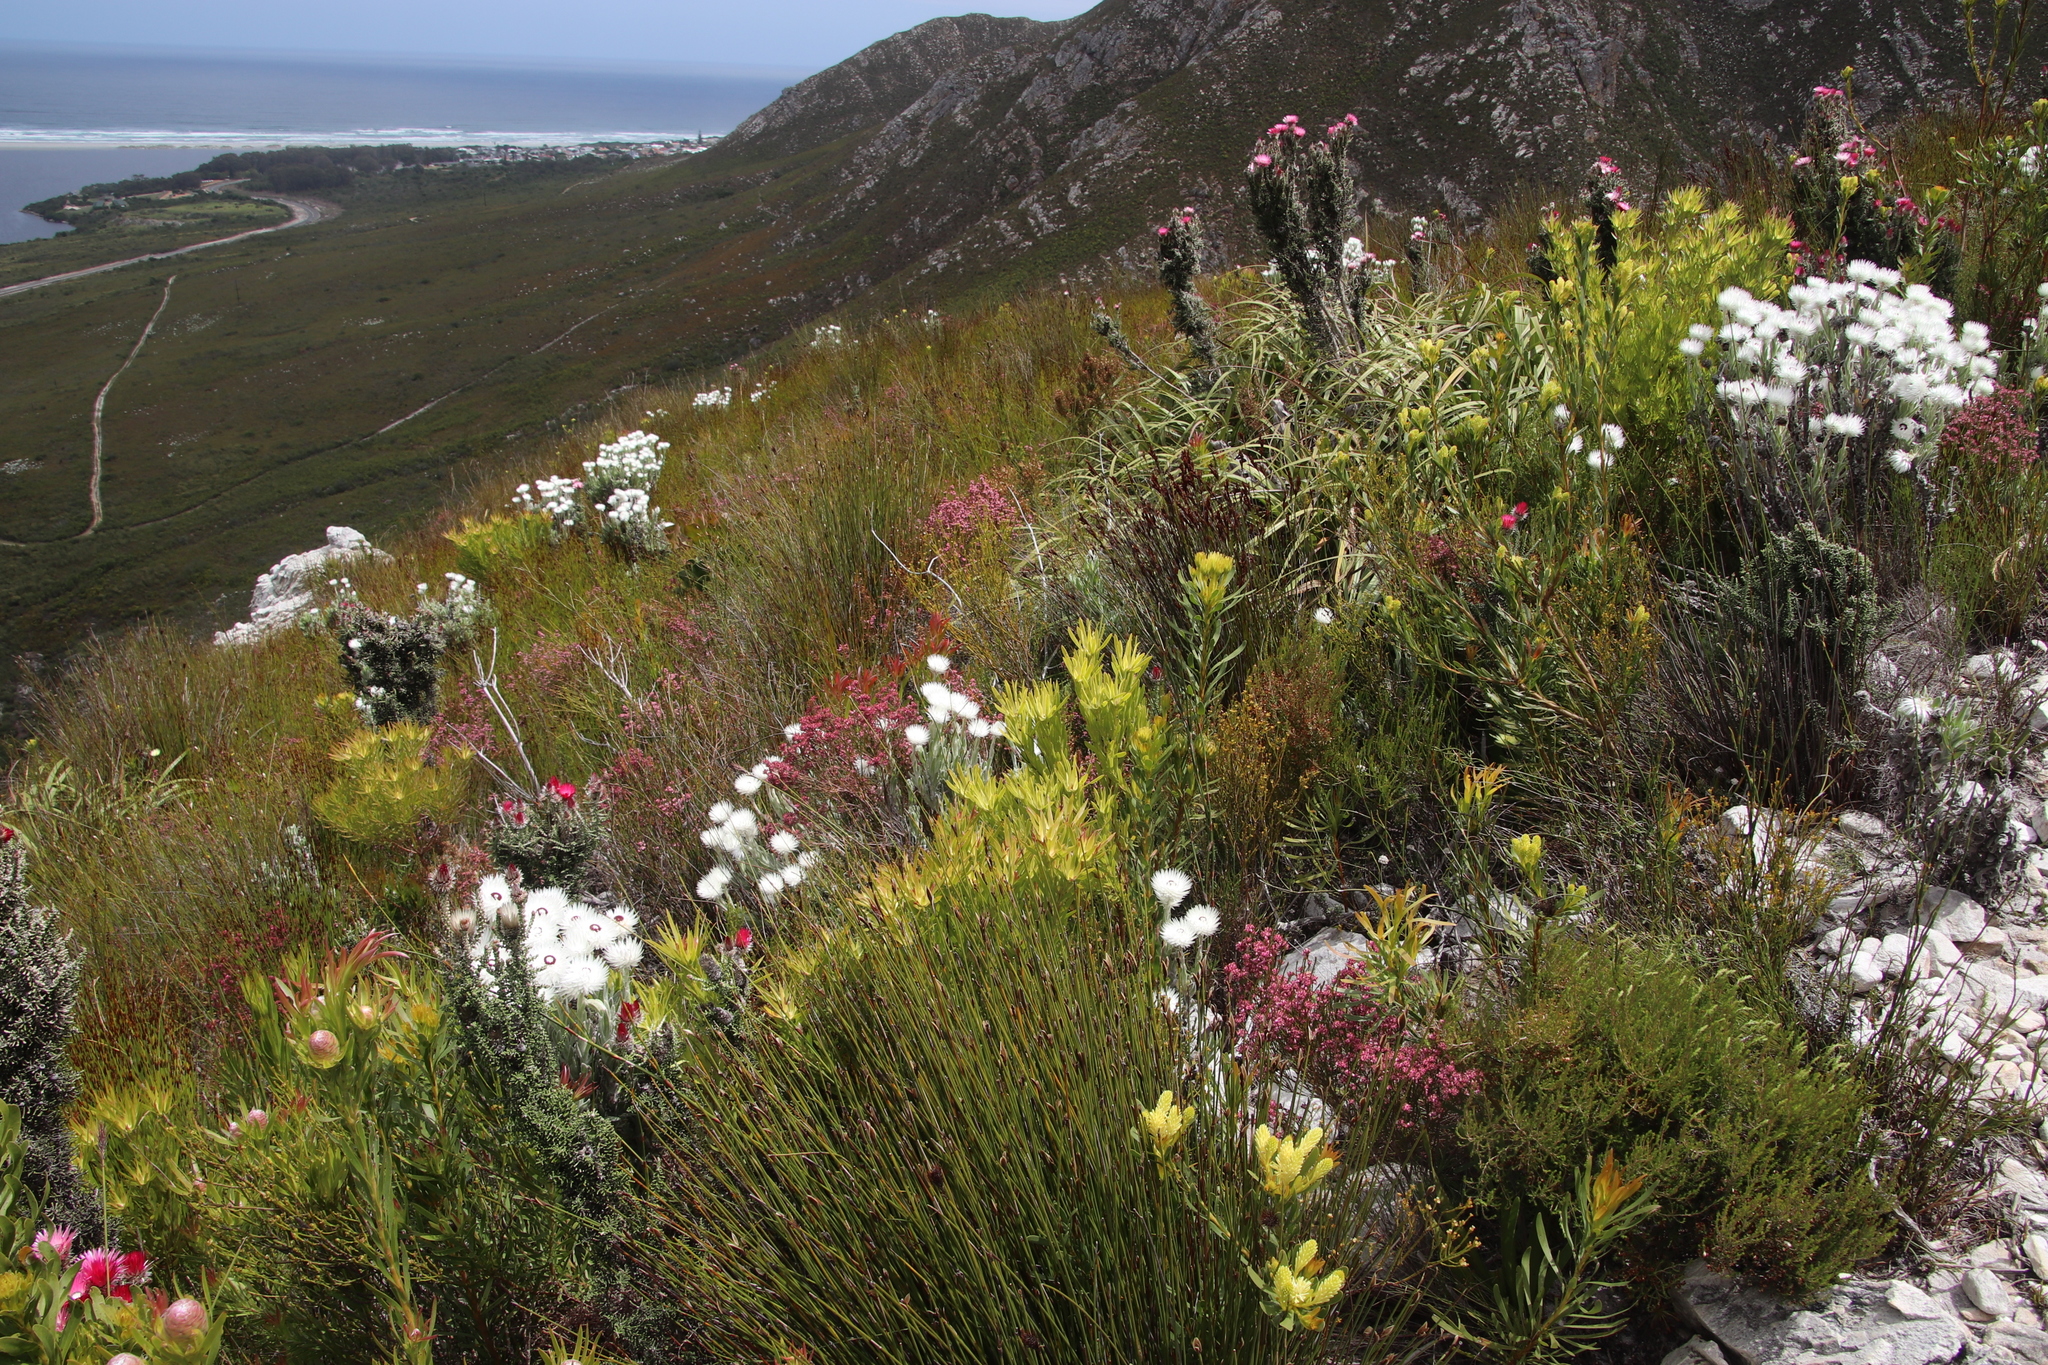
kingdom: Plantae
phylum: Tracheophyta
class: Magnoliopsida
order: Asterales
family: Asteraceae
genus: Syncarpha
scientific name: Syncarpha vestita
